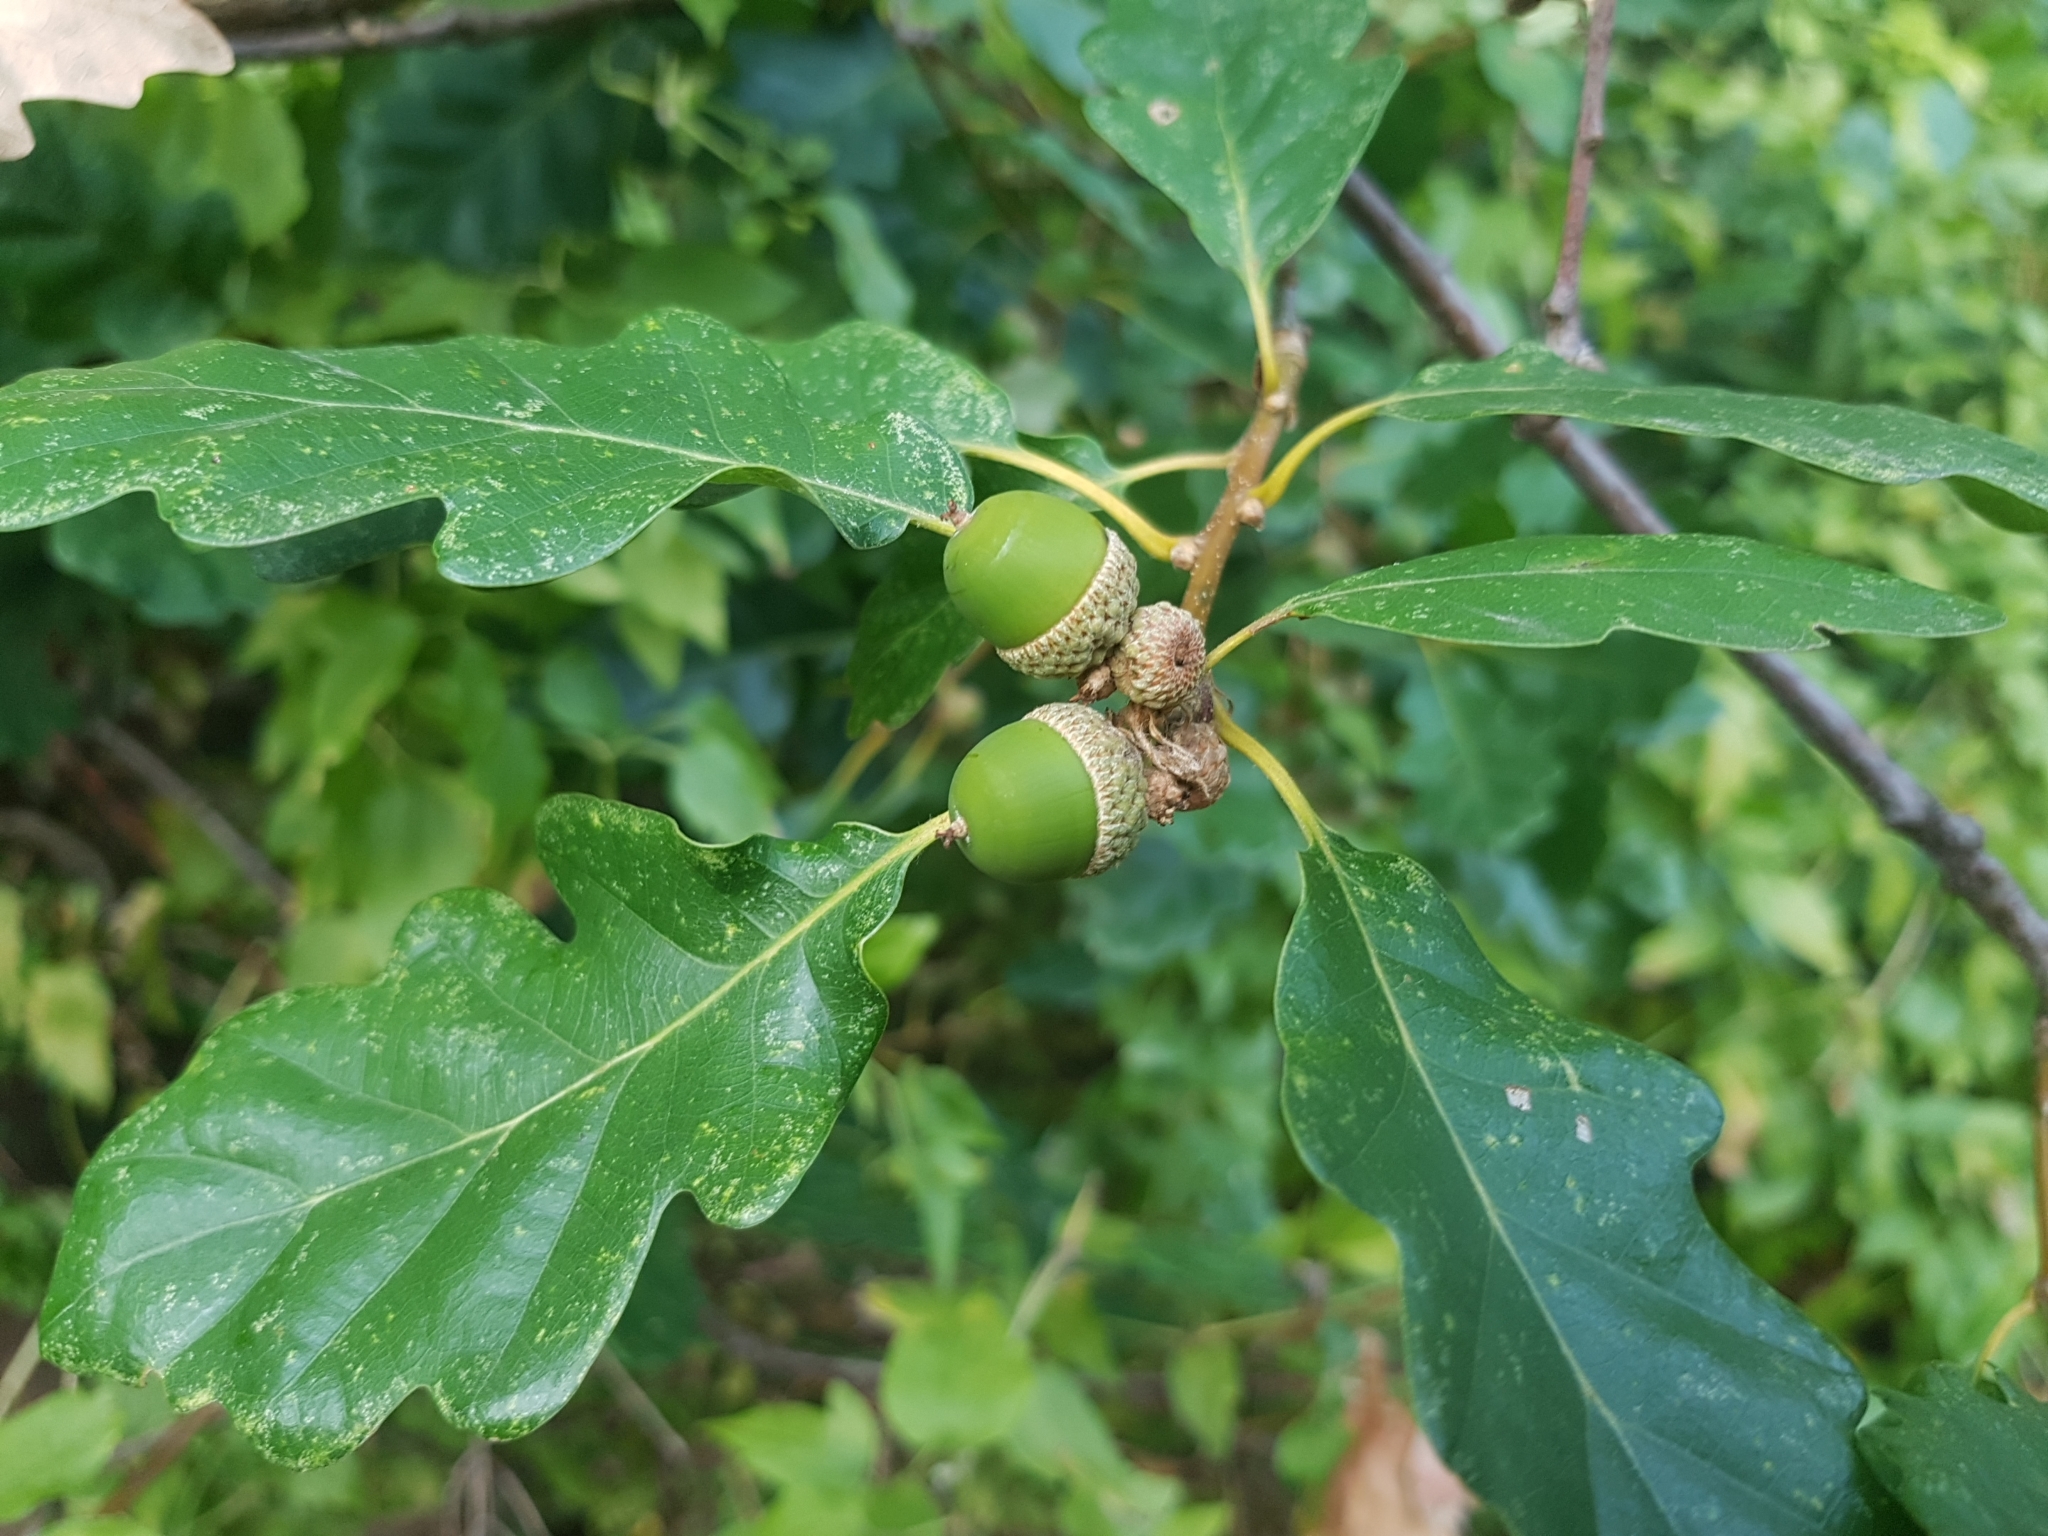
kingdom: Plantae
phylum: Tracheophyta
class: Magnoliopsida
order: Fagales
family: Fagaceae
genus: Quercus
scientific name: Quercus petraea
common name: Sessile oak
